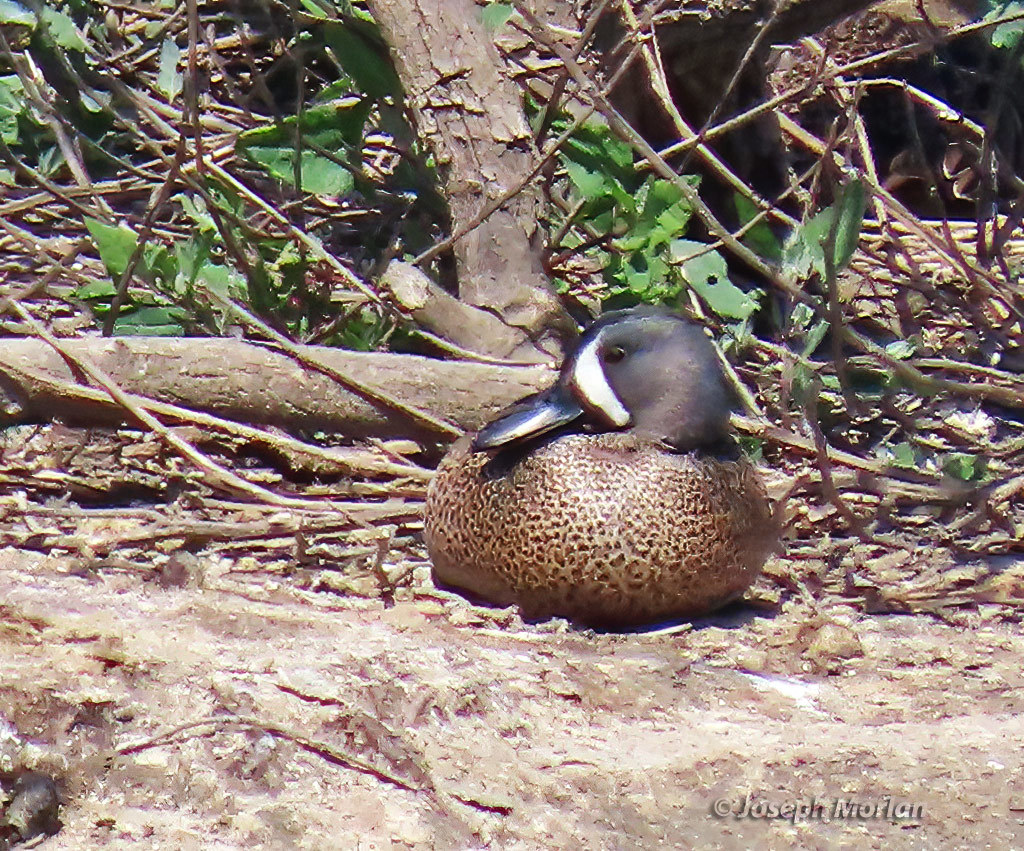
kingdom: Animalia
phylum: Chordata
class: Aves
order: Anseriformes
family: Anatidae
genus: Spatula
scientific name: Spatula discors
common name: Blue-winged teal
